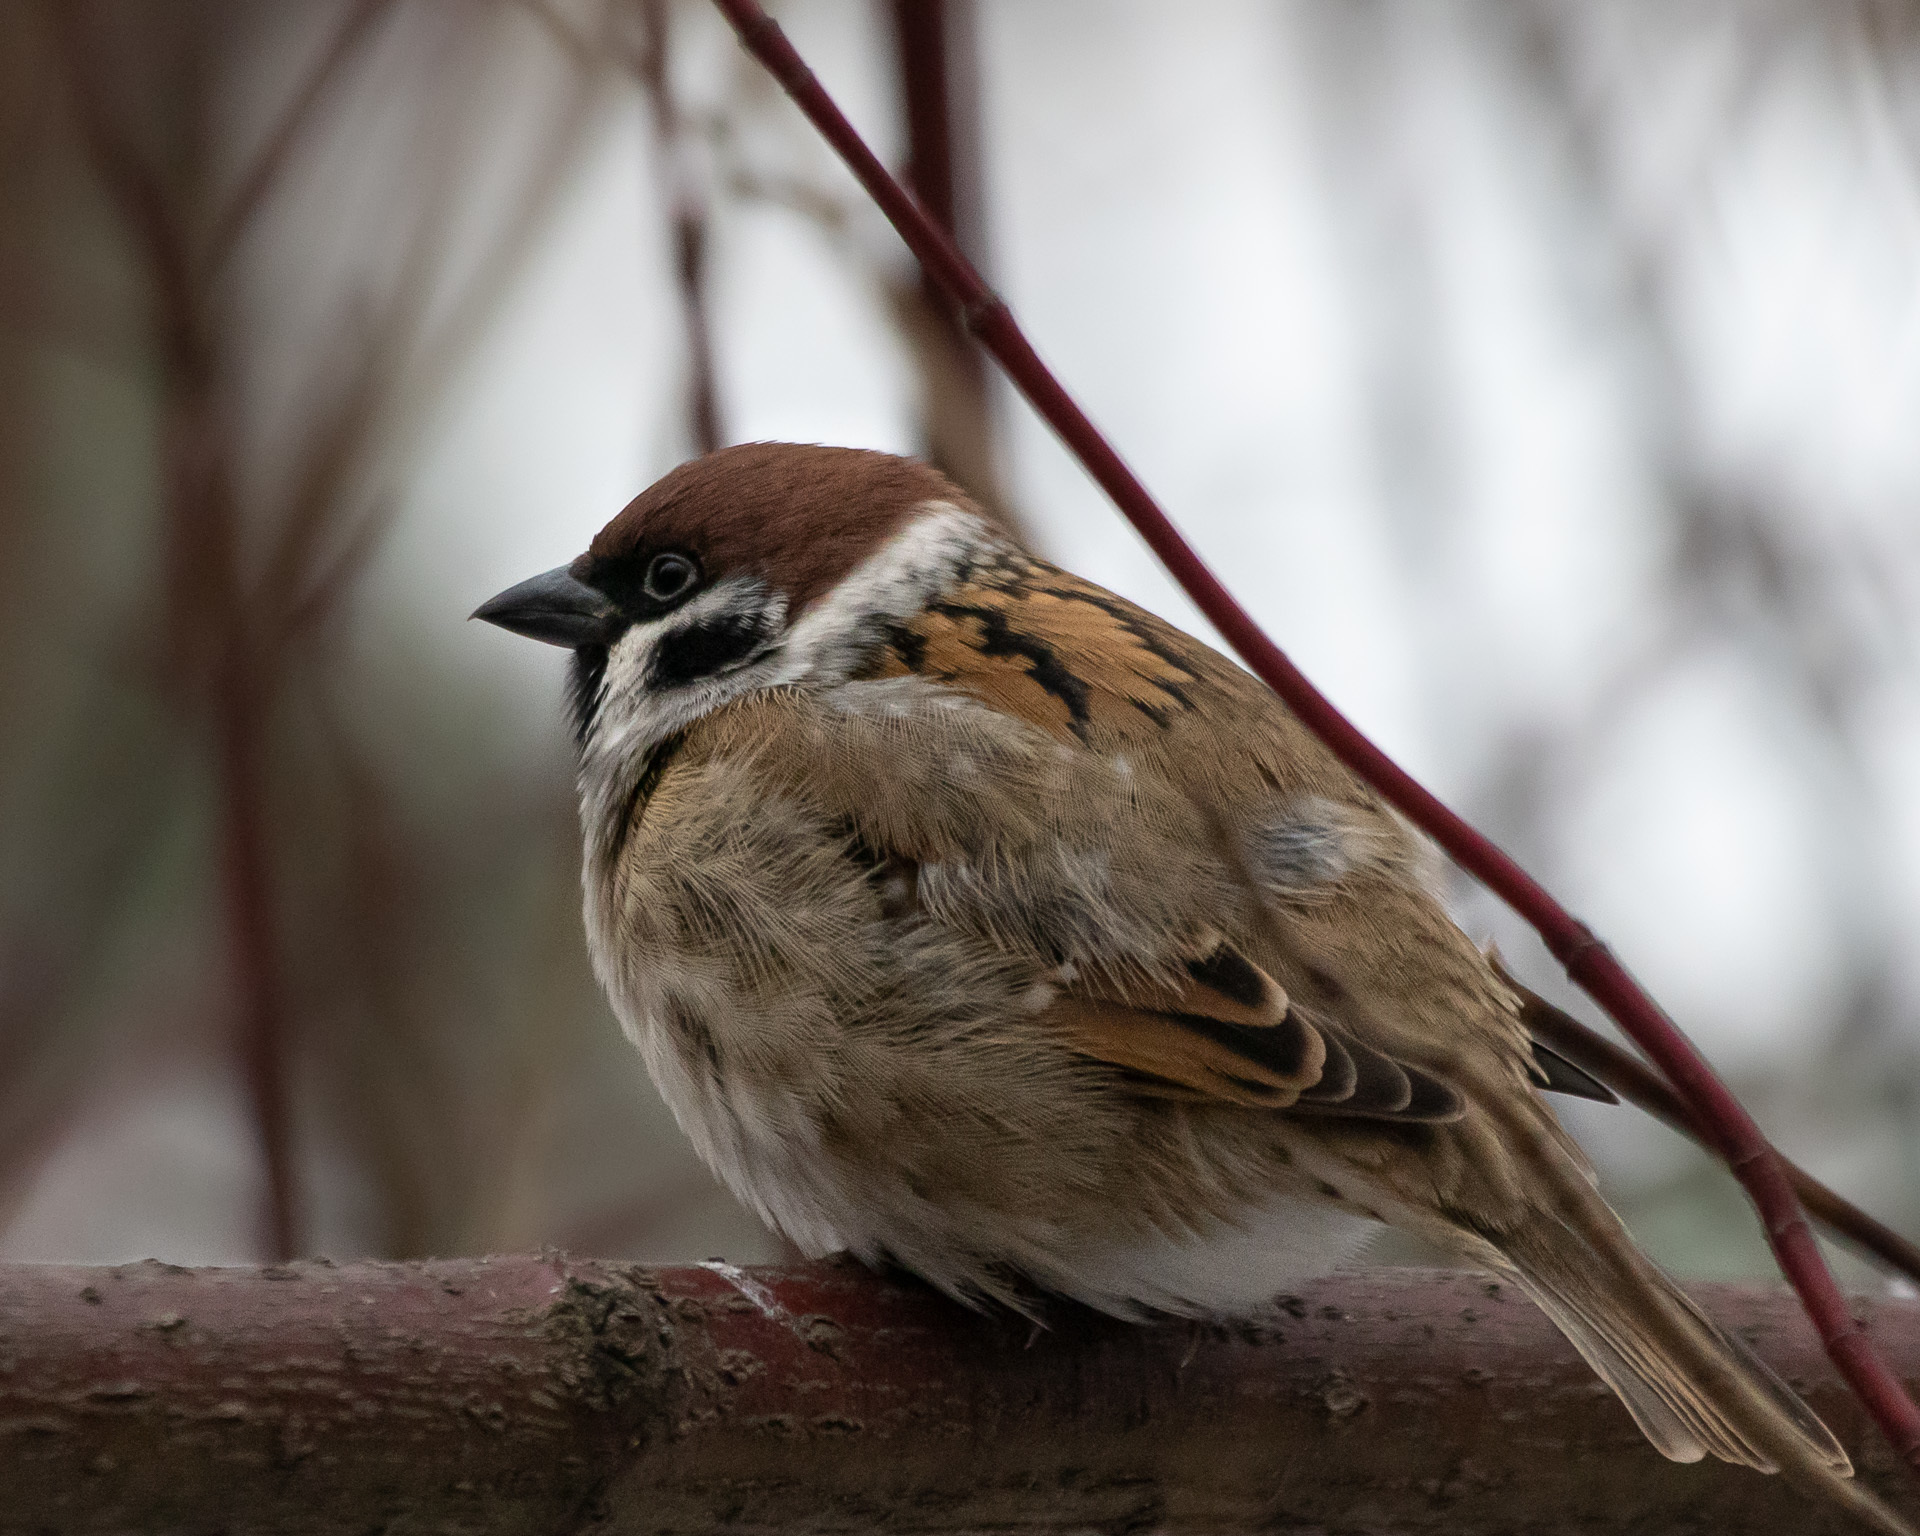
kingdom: Animalia
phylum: Chordata
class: Aves
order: Passeriformes
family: Passeridae
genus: Passer
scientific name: Passer montanus
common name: Eurasian tree sparrow
